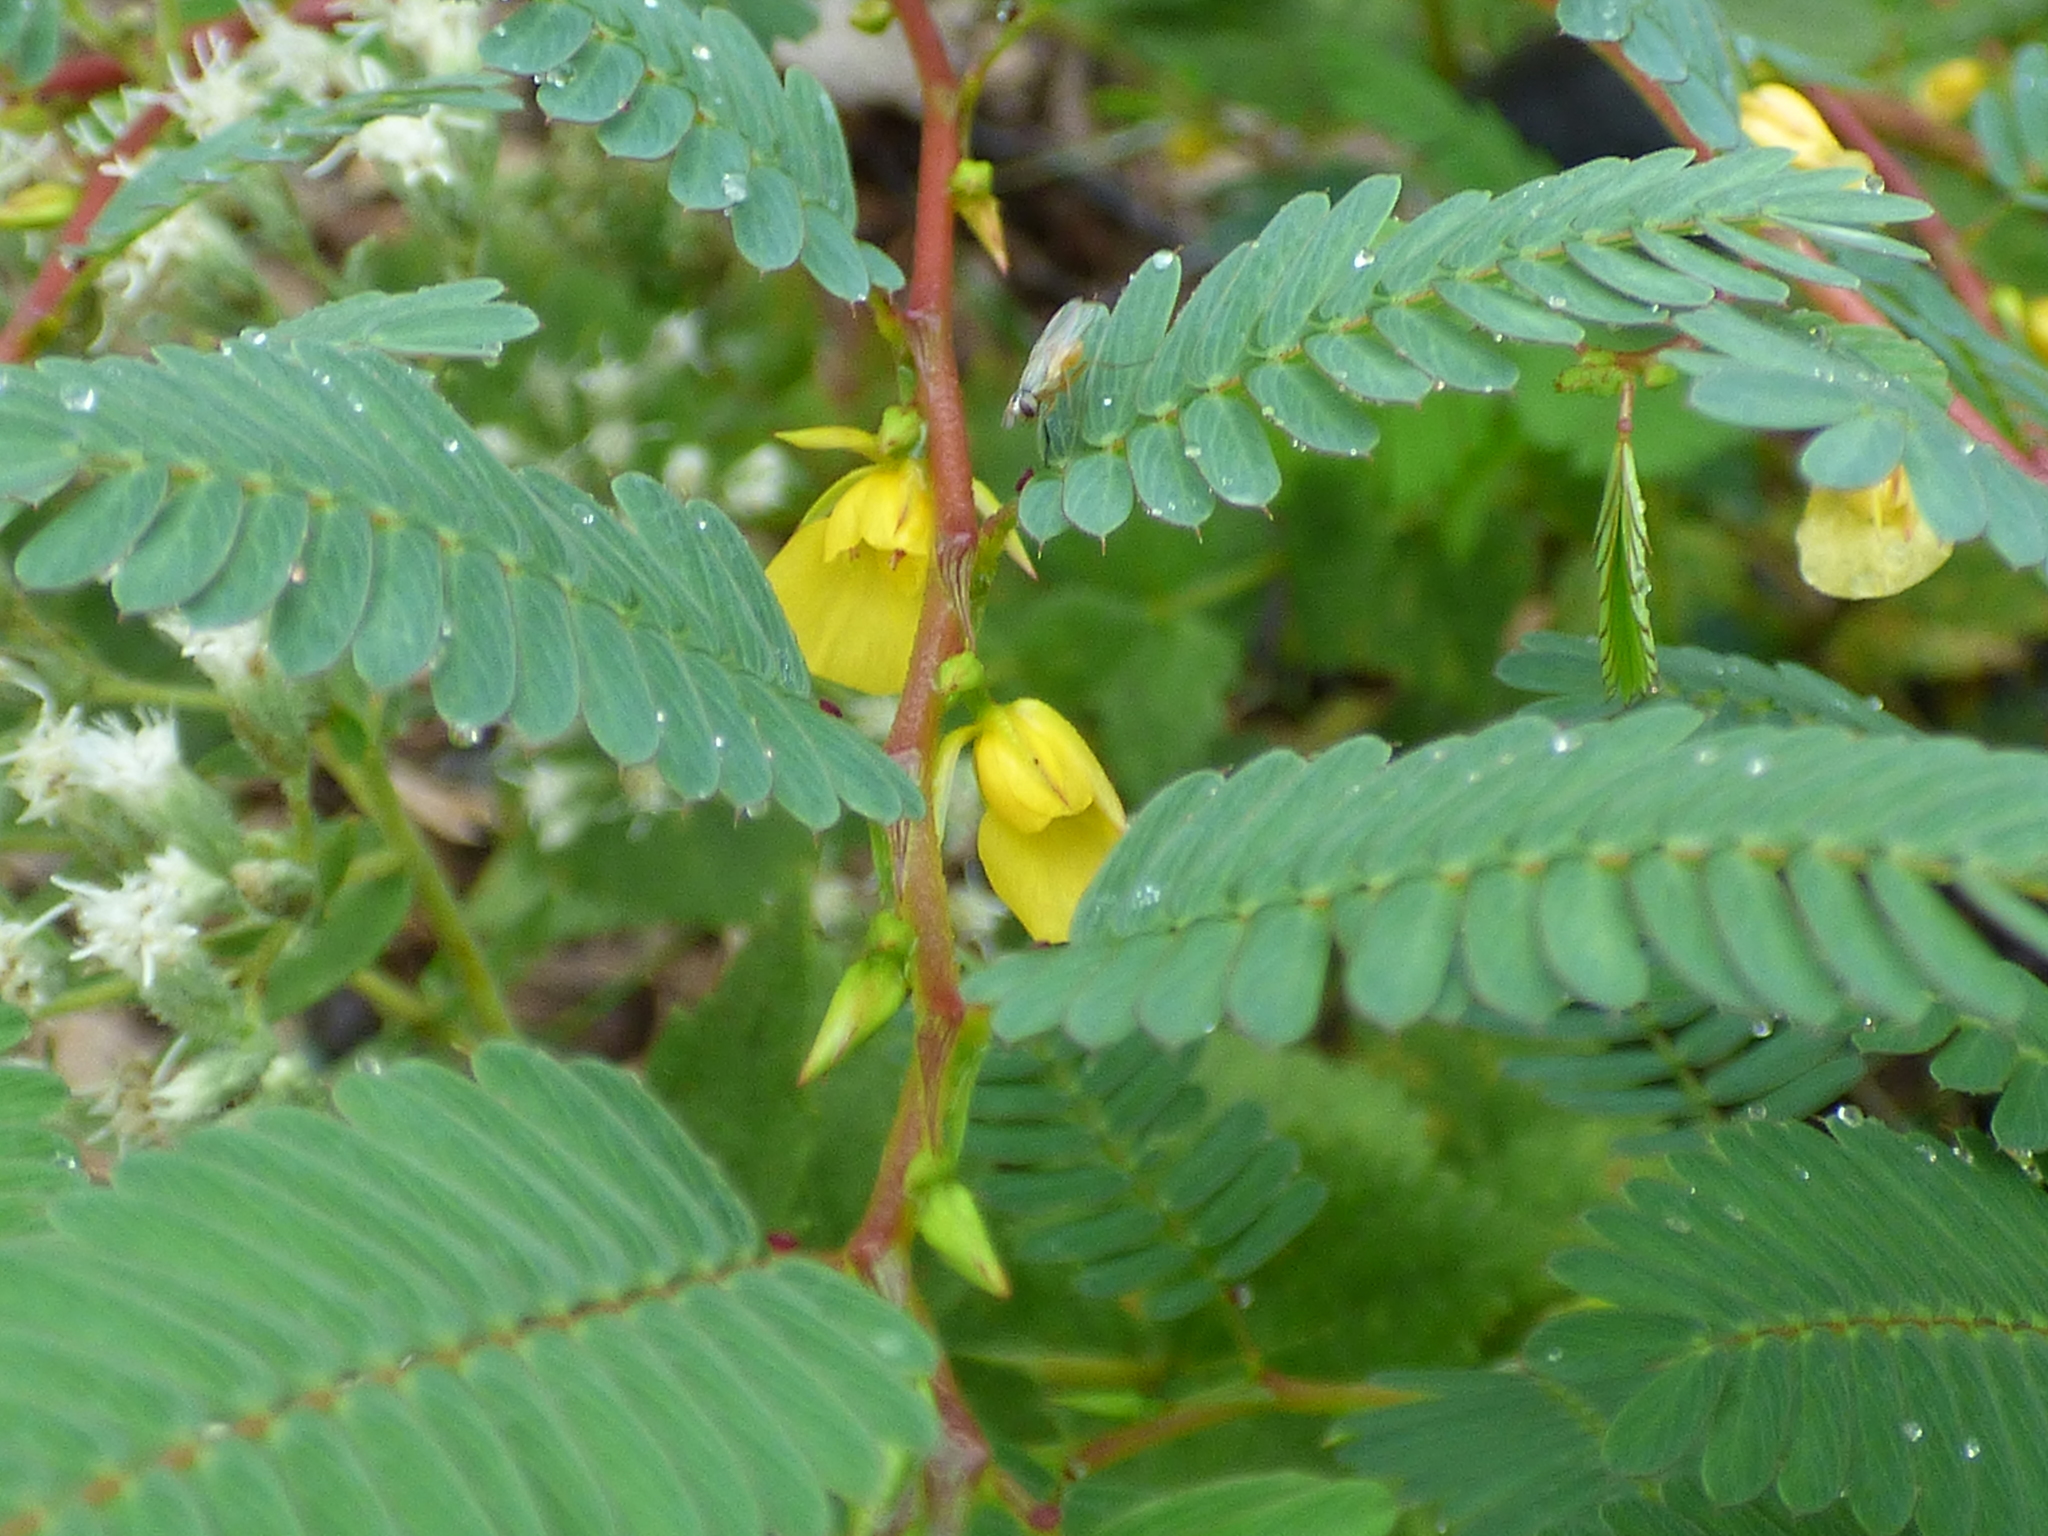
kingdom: Plantae
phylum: Tracheophyta
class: Magnoliopsida
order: Fabales
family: Fabaceae
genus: Chamaecrista
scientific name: Chamaecrista nictitans
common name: Sensitive cassia
